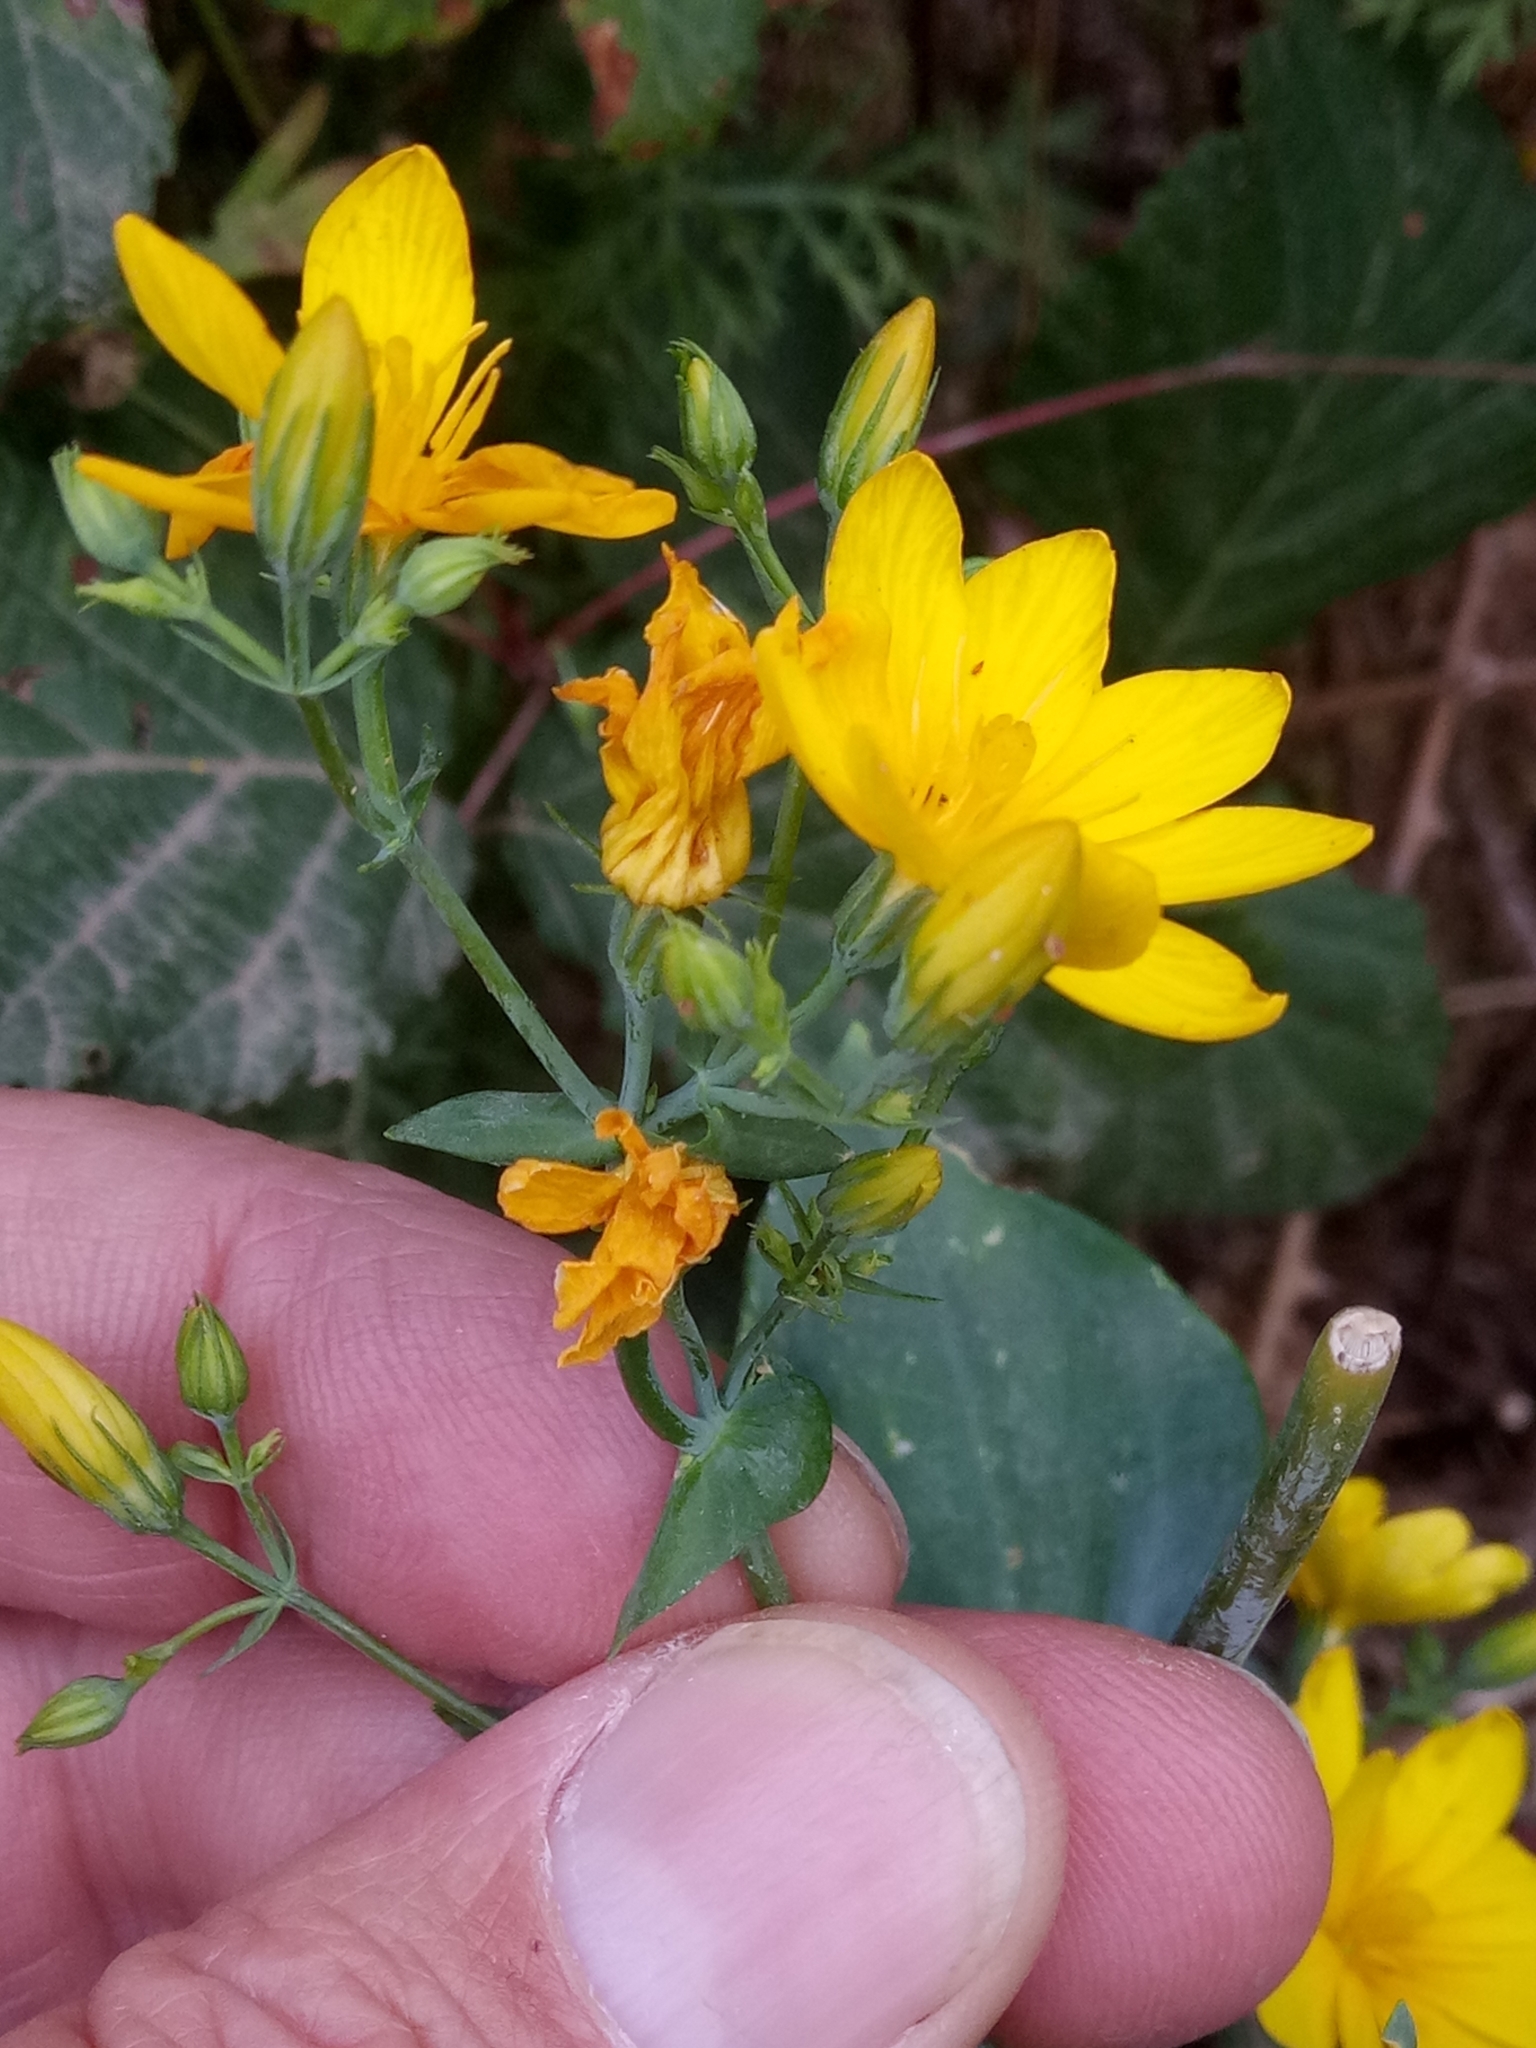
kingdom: Plantae
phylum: Tracheophyta
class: Magnoliopsida
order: Gentianales
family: Gentianaceae
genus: Blackstonia
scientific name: Blackstonia grandiflora
